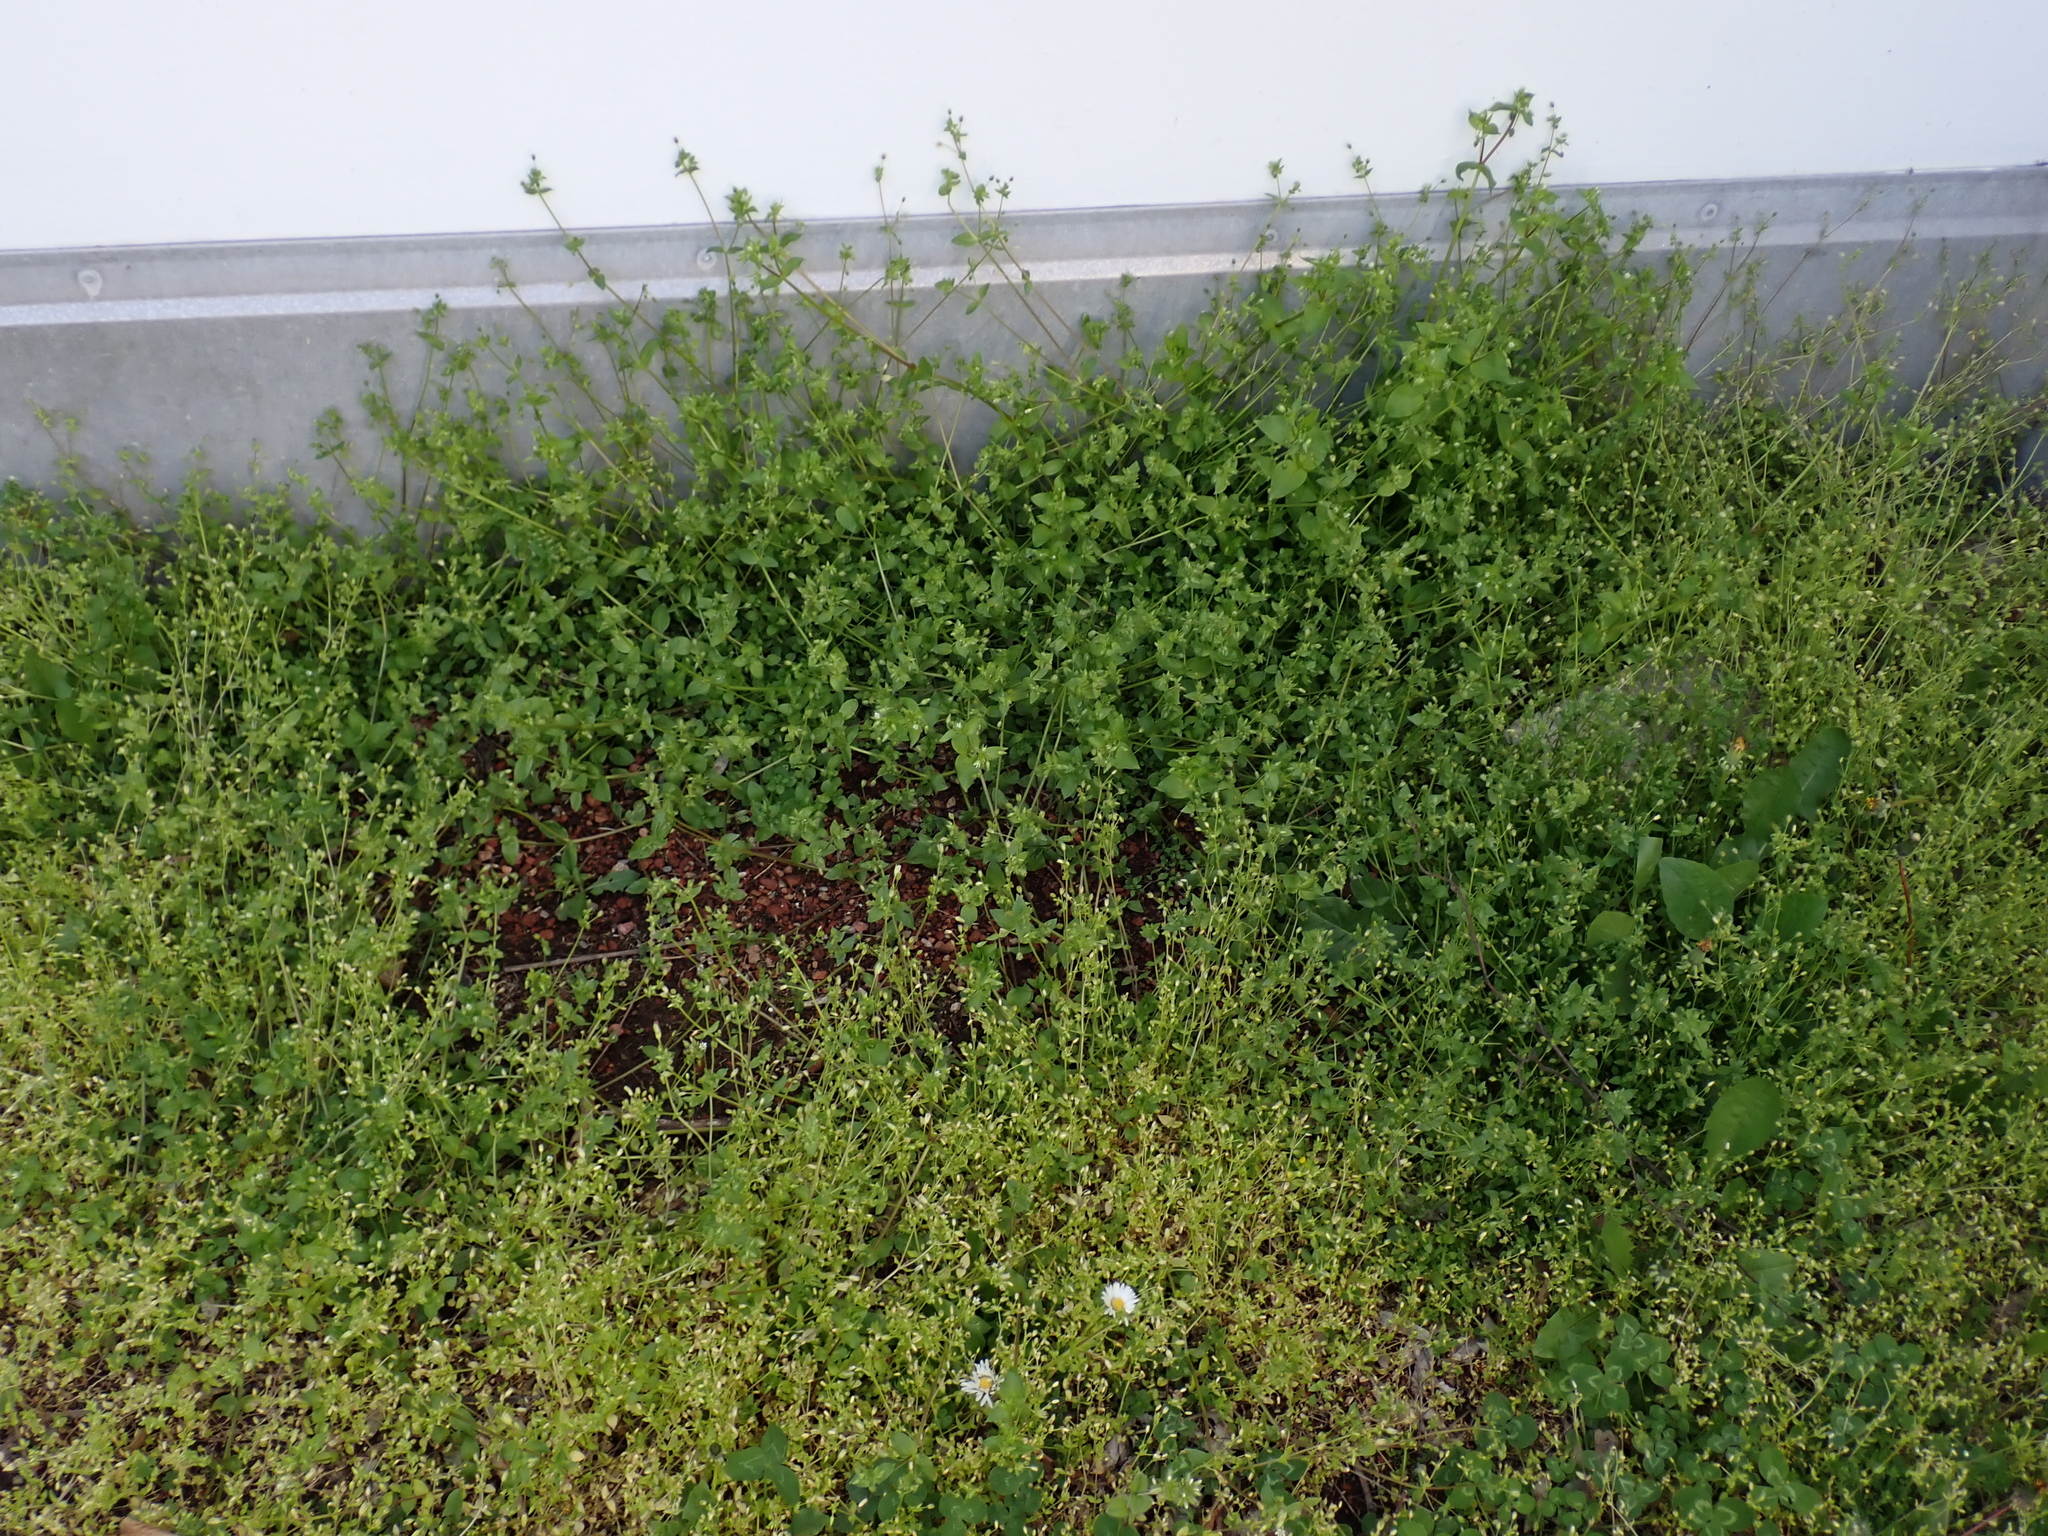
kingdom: Plantae
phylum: Tracheophyta
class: Magnoliopsida
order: Caryophyllales
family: Caryophyllaceae
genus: Stellaria
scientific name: Stellaria ruderalis
